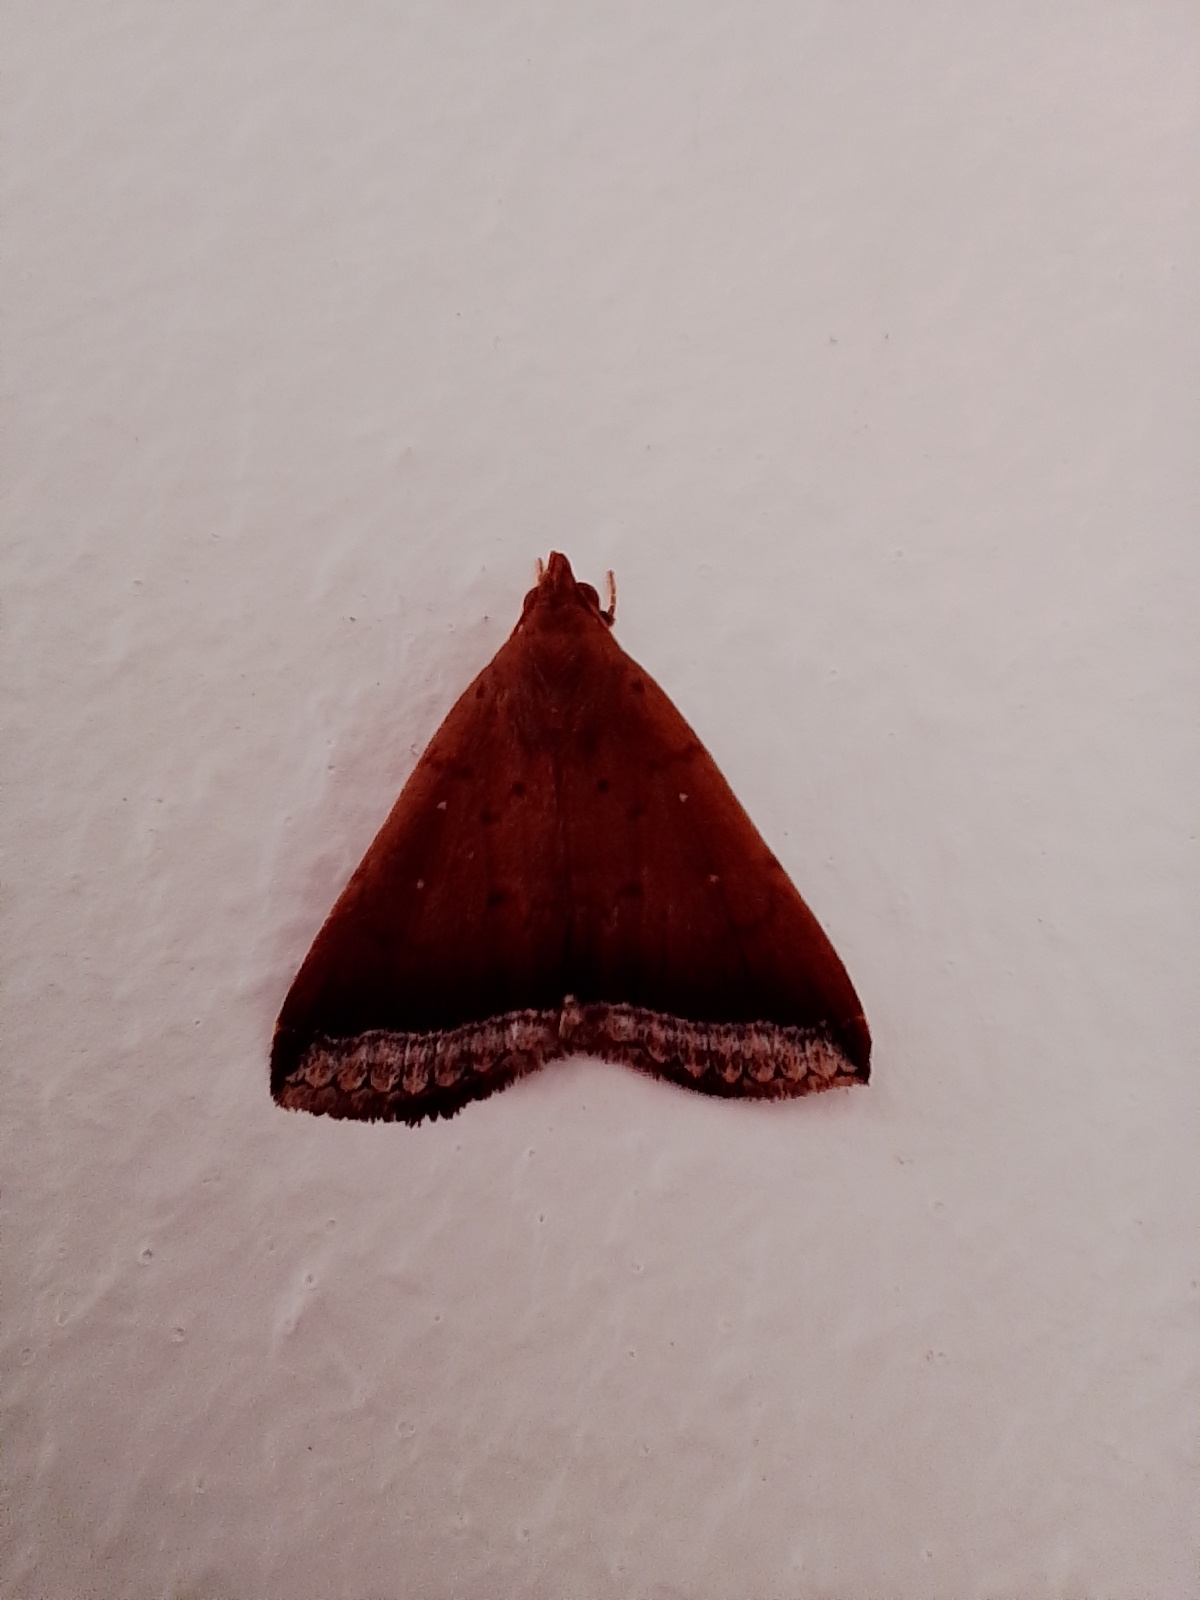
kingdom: Animalia
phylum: Arthropoda
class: Insecta
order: Lepidoptera
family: Erebidae
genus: Mamerthes
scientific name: Mamerthes orionalis
